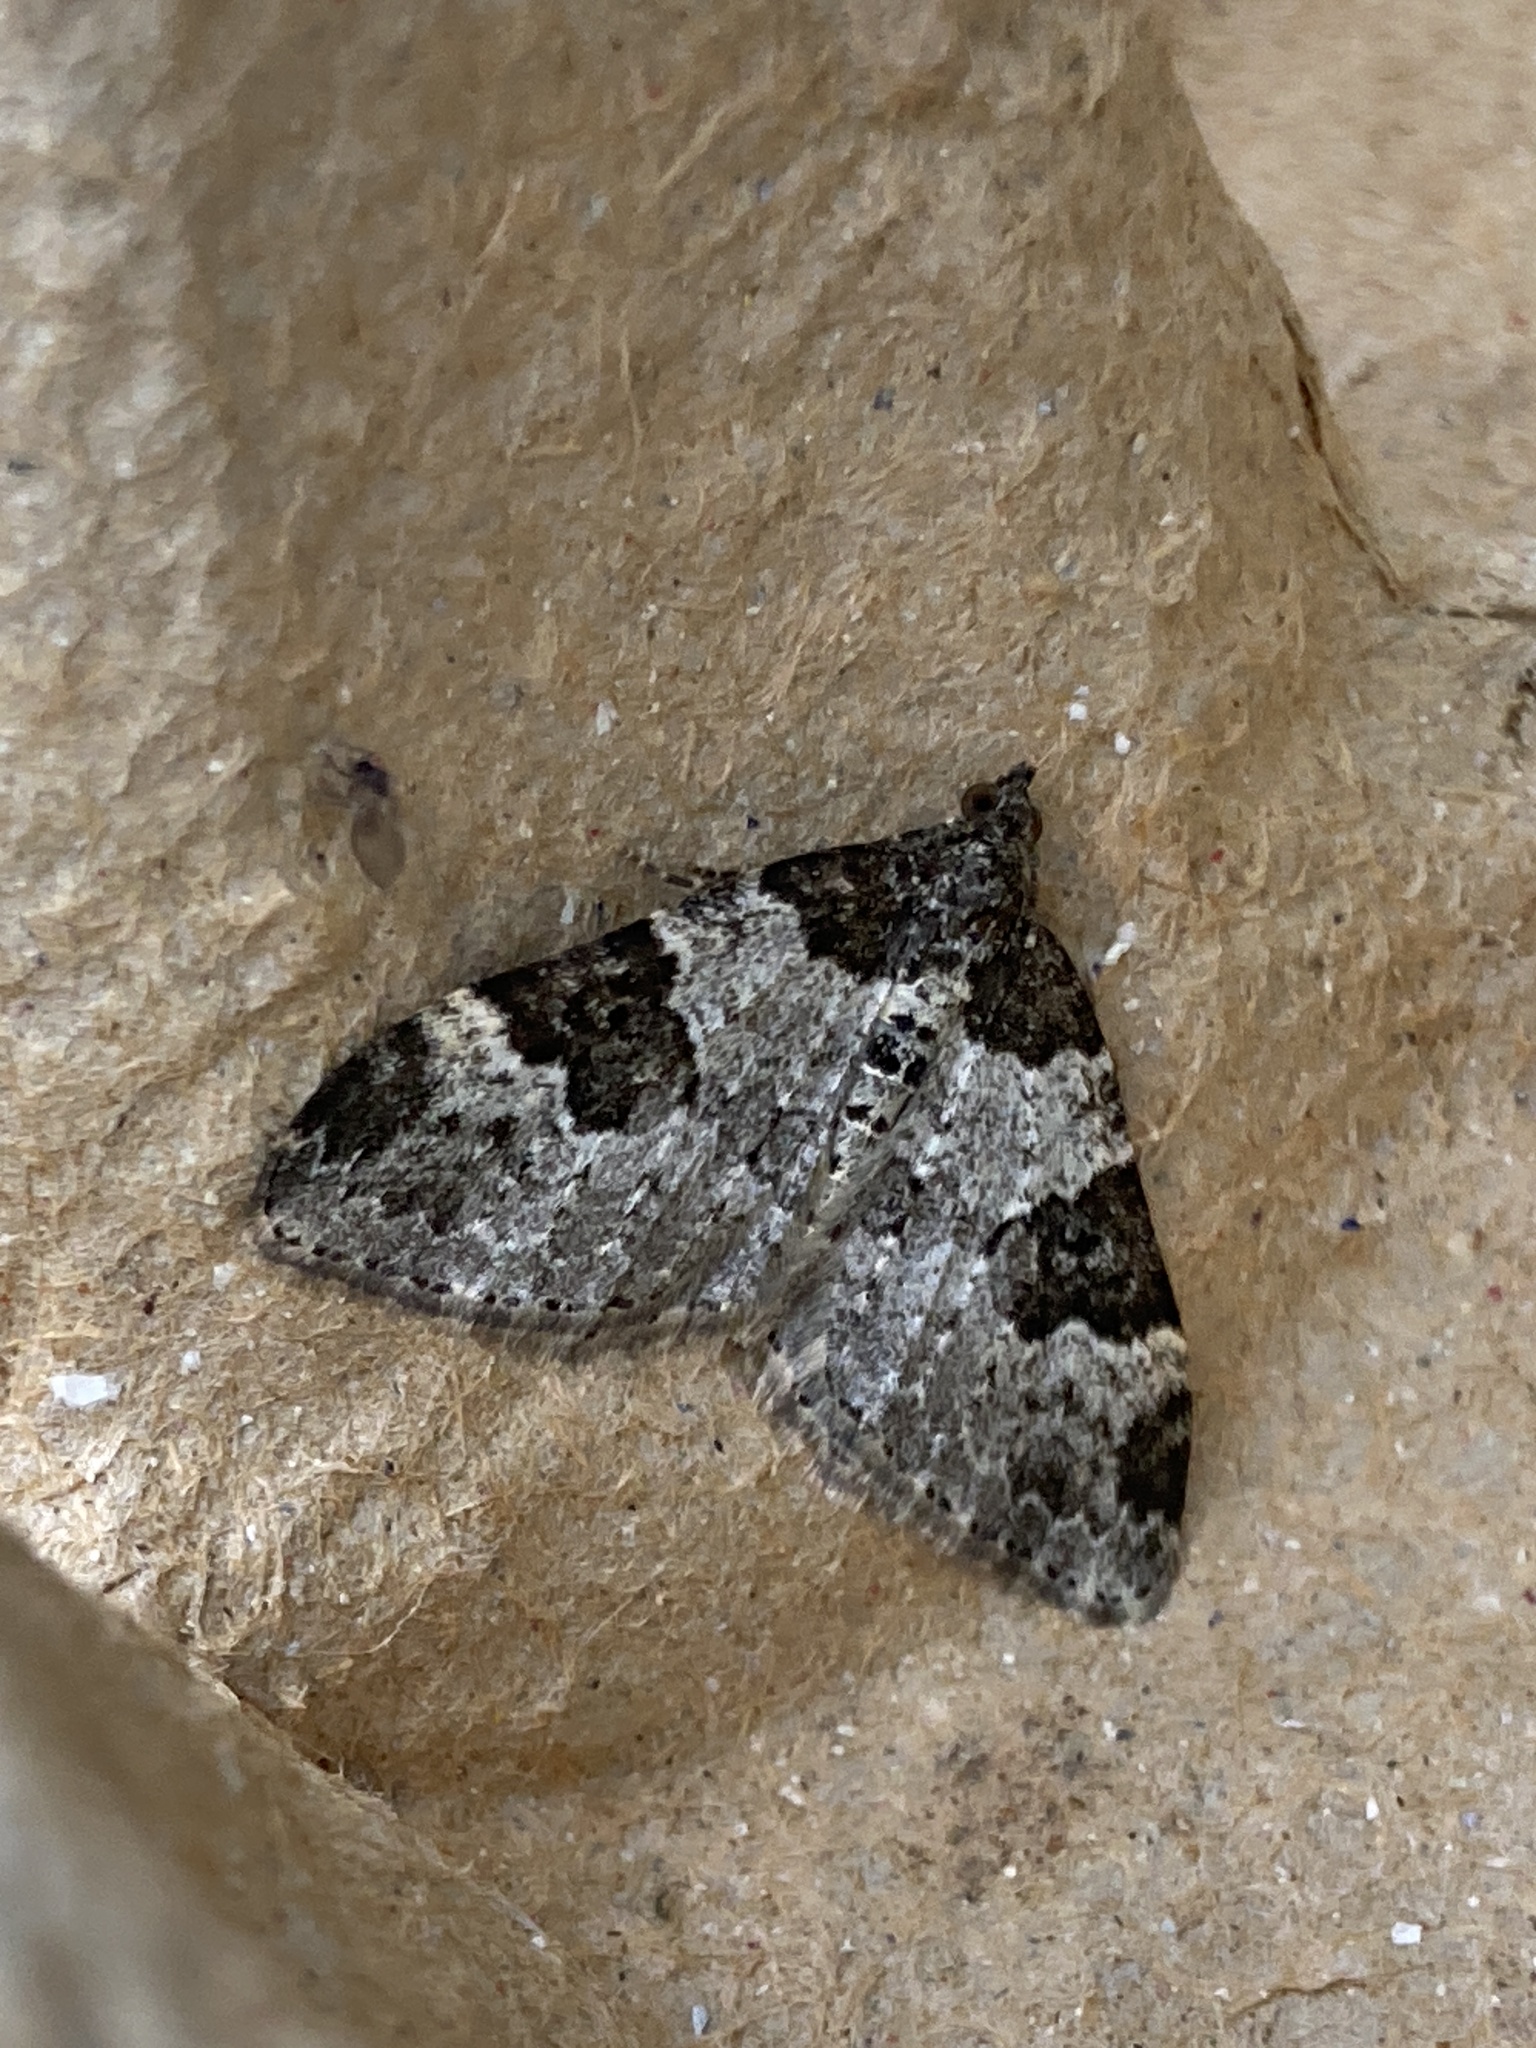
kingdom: Animalia
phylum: Arthropoda
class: Insecta
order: Lepidoptera
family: Geometridae
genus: Xanthorhoe
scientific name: Xanthorhoe fluctuata
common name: Garden carpet
